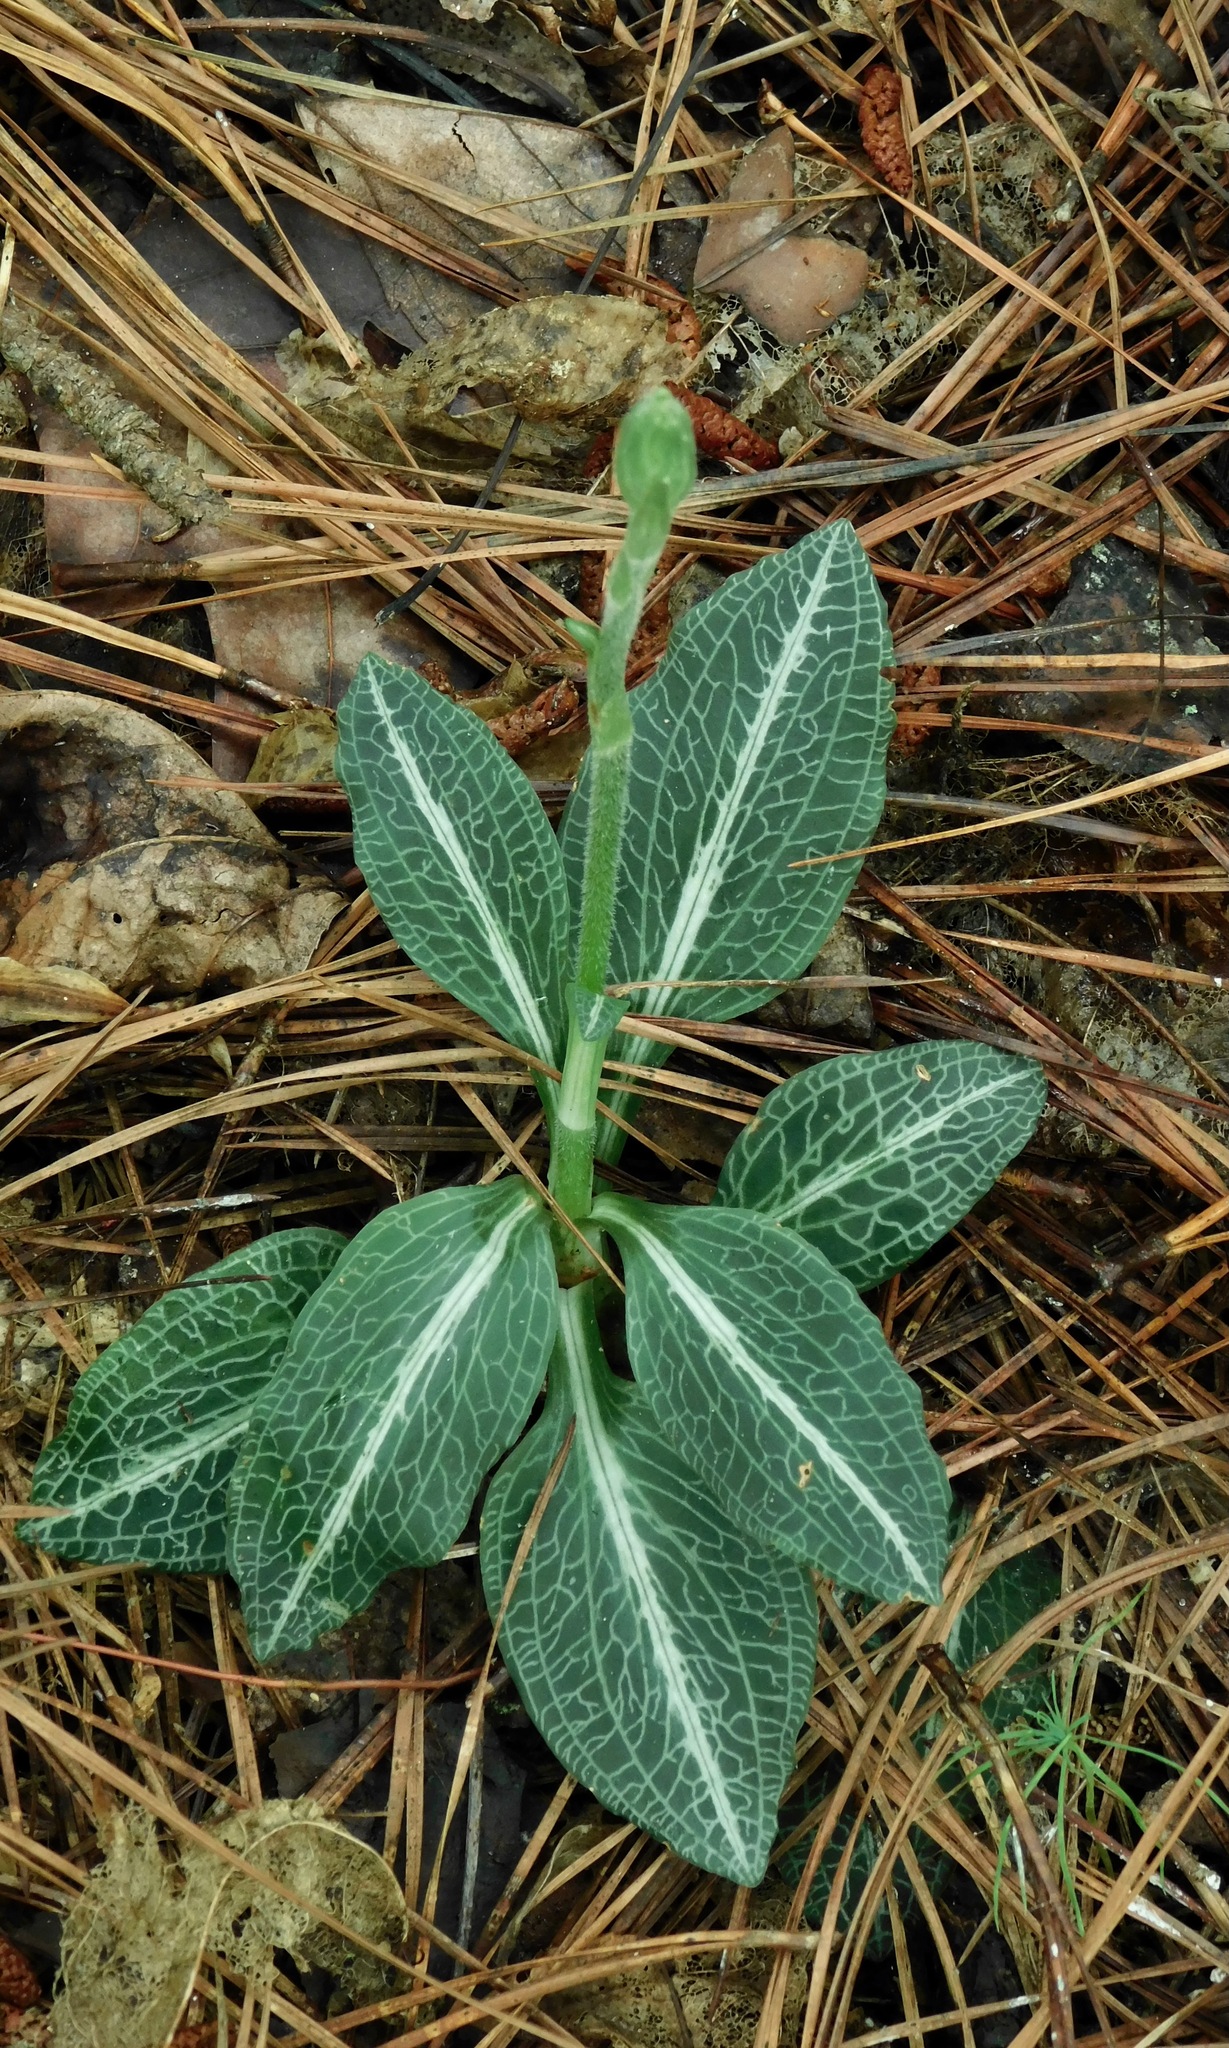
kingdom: Plantae
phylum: Tracheophyta
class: Liliopsida
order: Asparagales
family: Orchidaceae
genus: Goodyera
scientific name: Goodyera pubescens
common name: Downy rattlesnake-plantain
